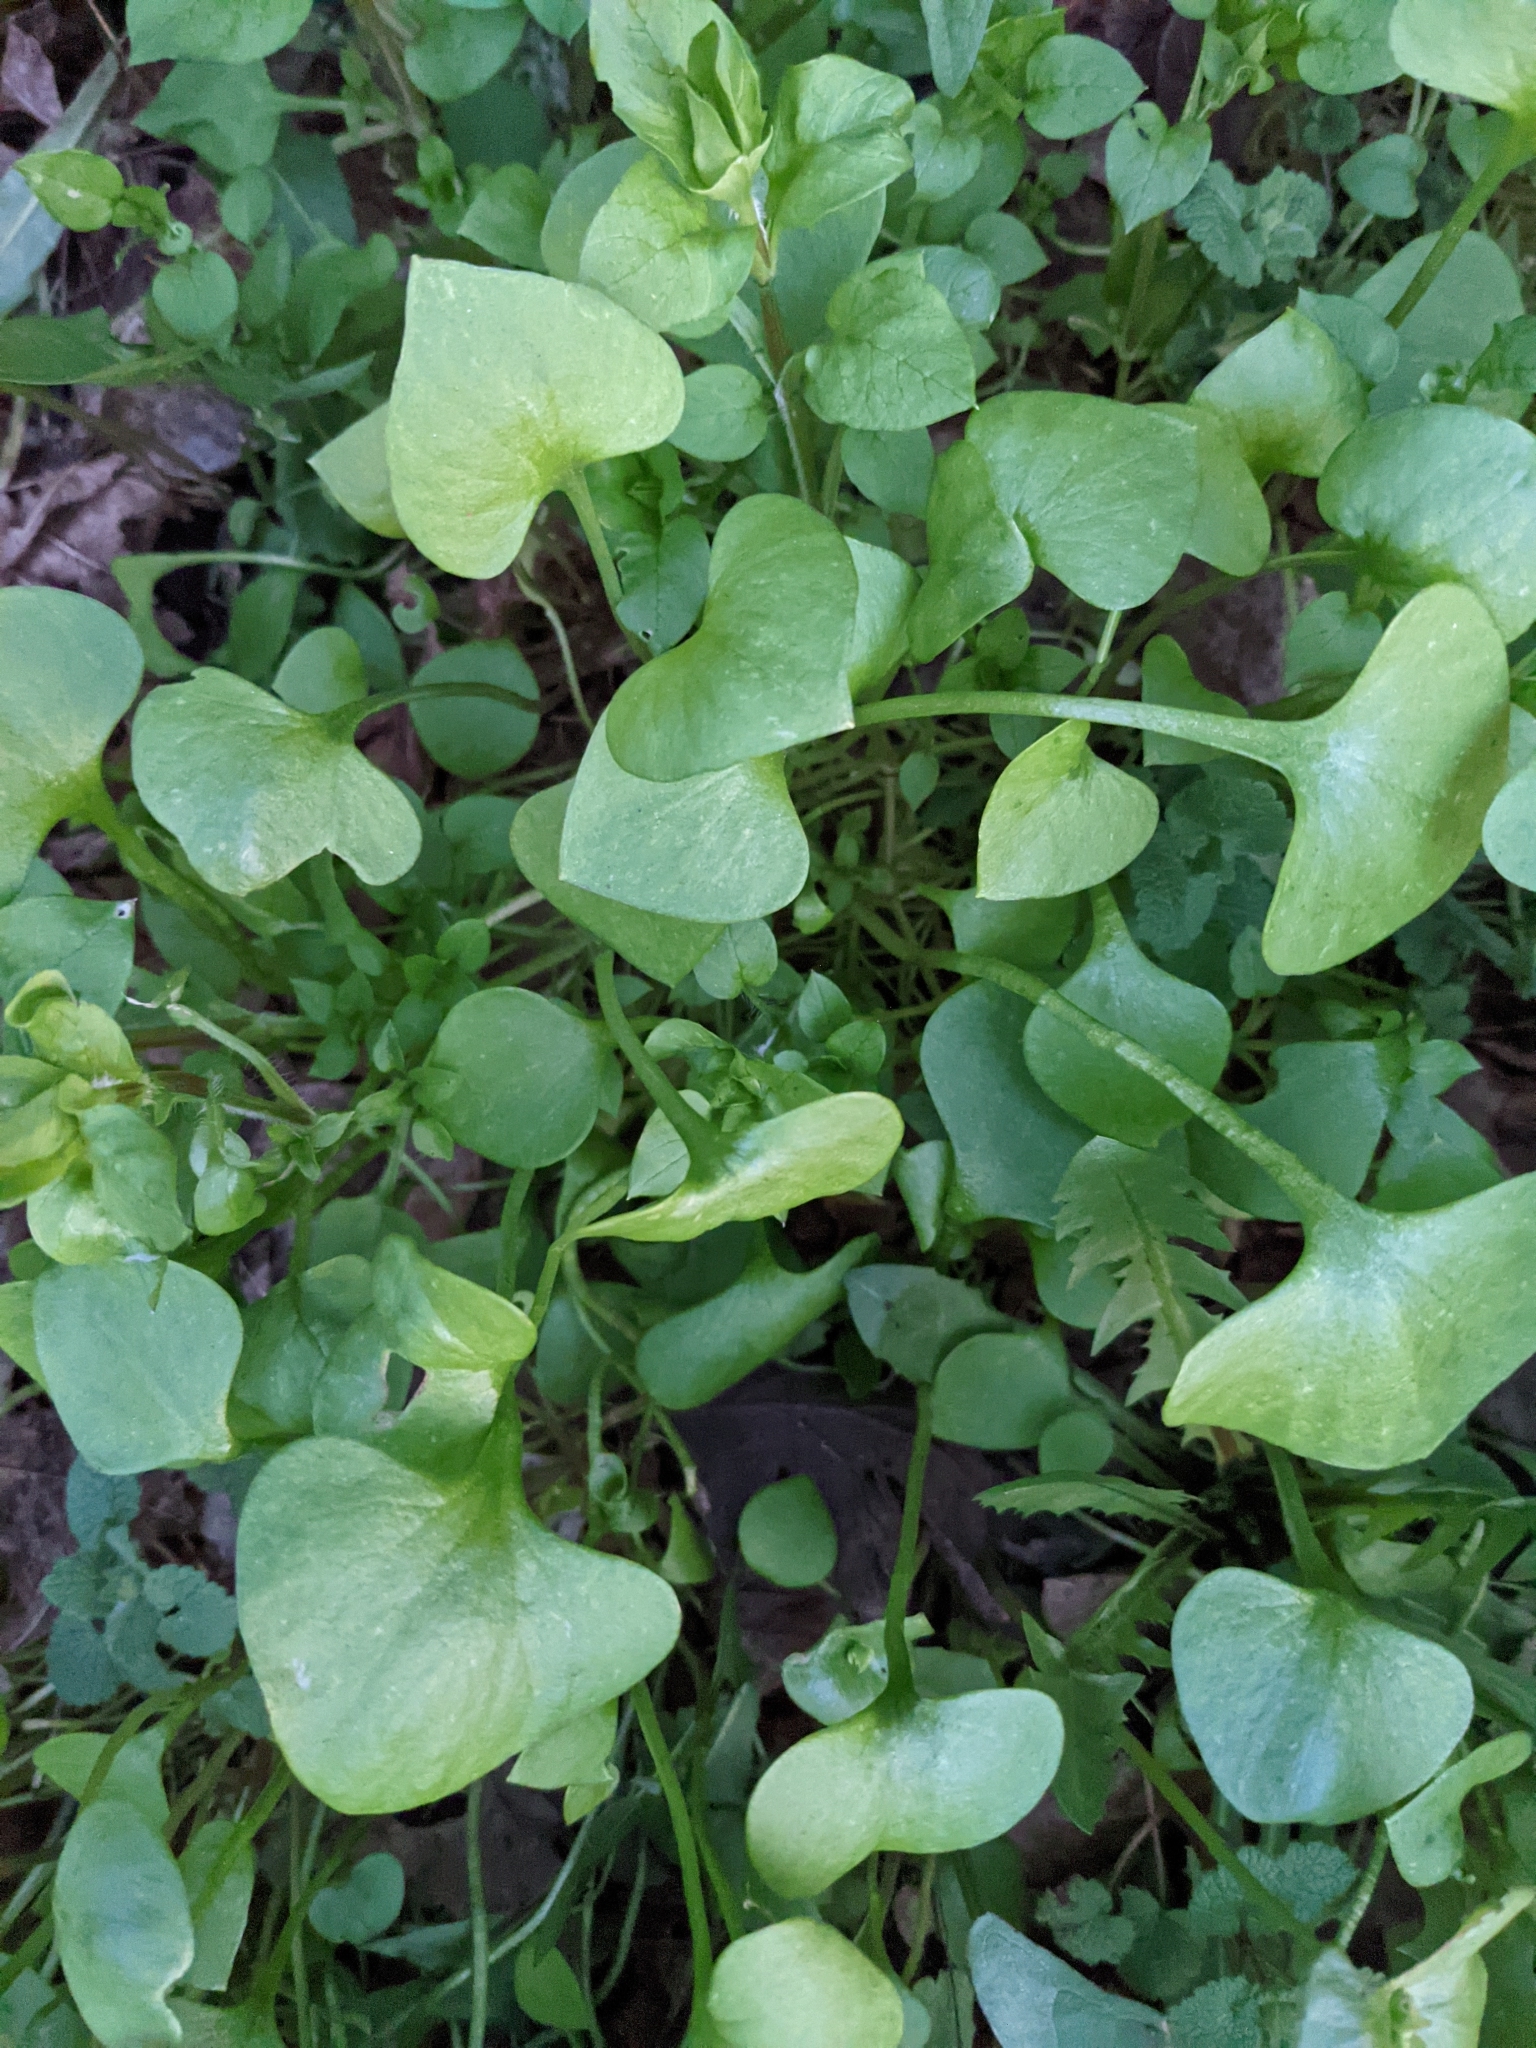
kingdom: Plantae
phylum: Tracheophyta
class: Magnoliopsida
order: Caryophyllales
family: Montiaceae
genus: Claytonia
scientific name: Claytonia perfoliata
